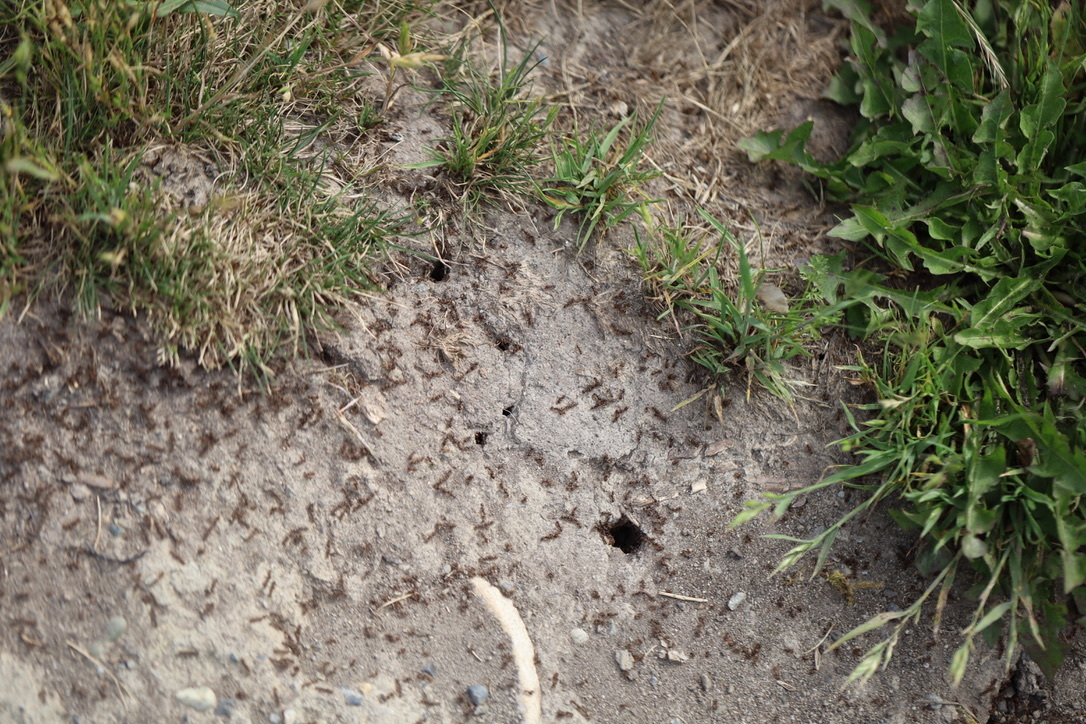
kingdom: Animalia
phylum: Arthropoda
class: Insecta
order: Hymenoptera
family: Formicidae
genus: Tetramorium
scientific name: Tetramorium immigrans
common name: Pavement ant
